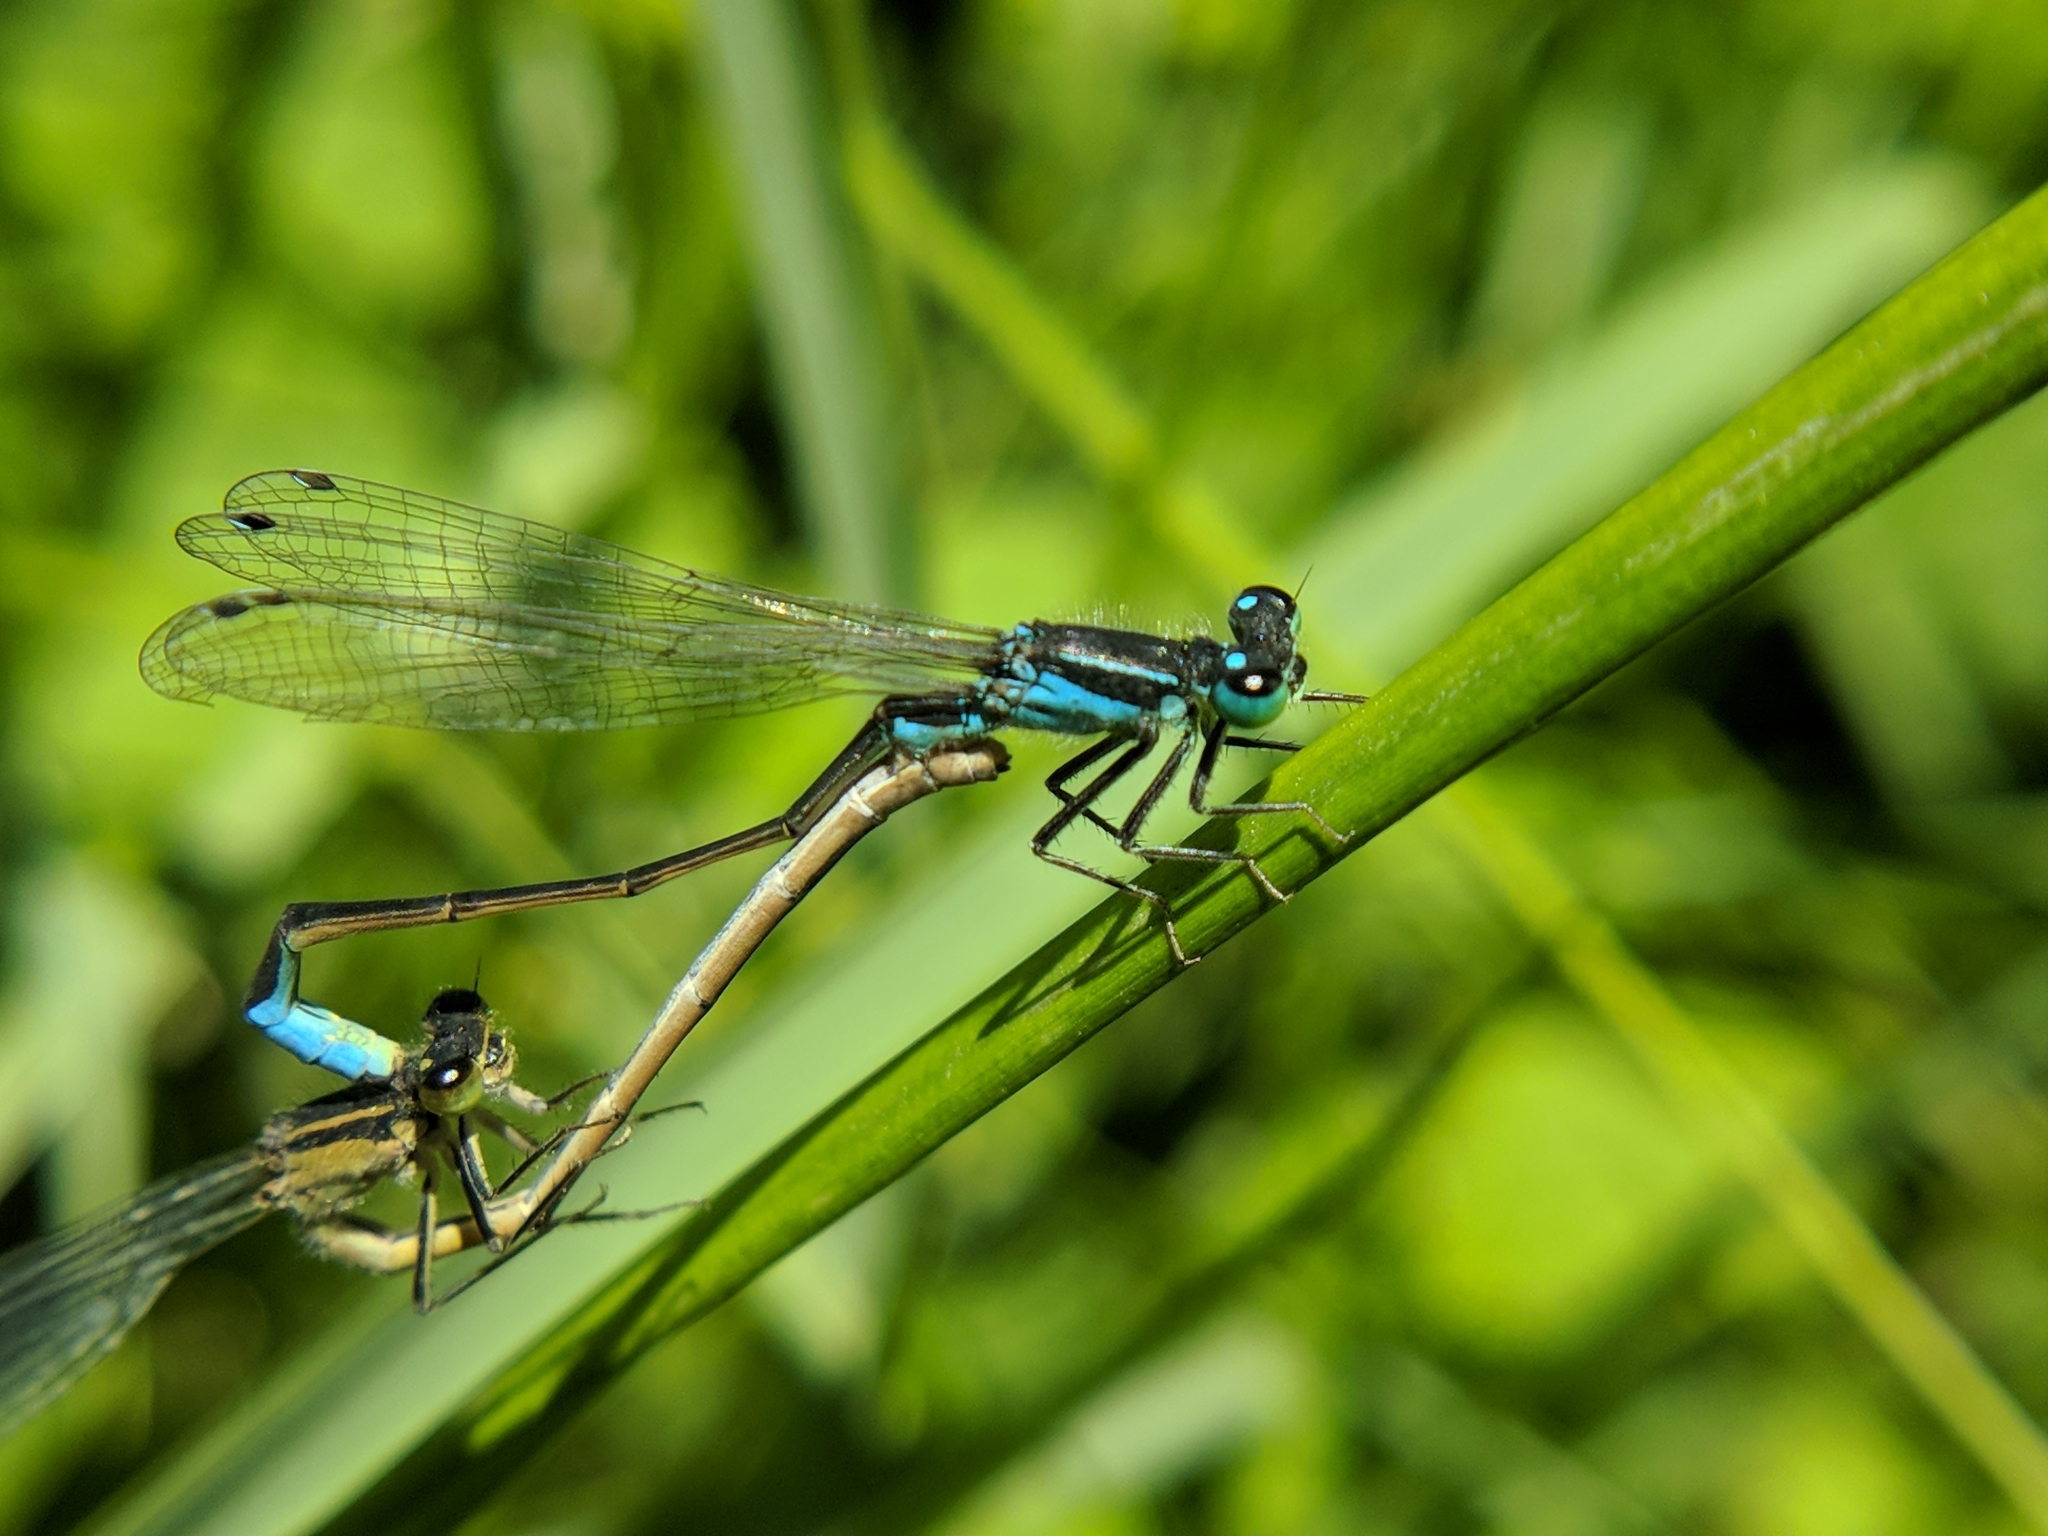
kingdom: Animalia
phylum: Arthropoda
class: Insecta
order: Odonata
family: Coenagrionidae
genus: Ischnura
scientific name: Ischnura elegans
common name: Blue-tailed damselfly
